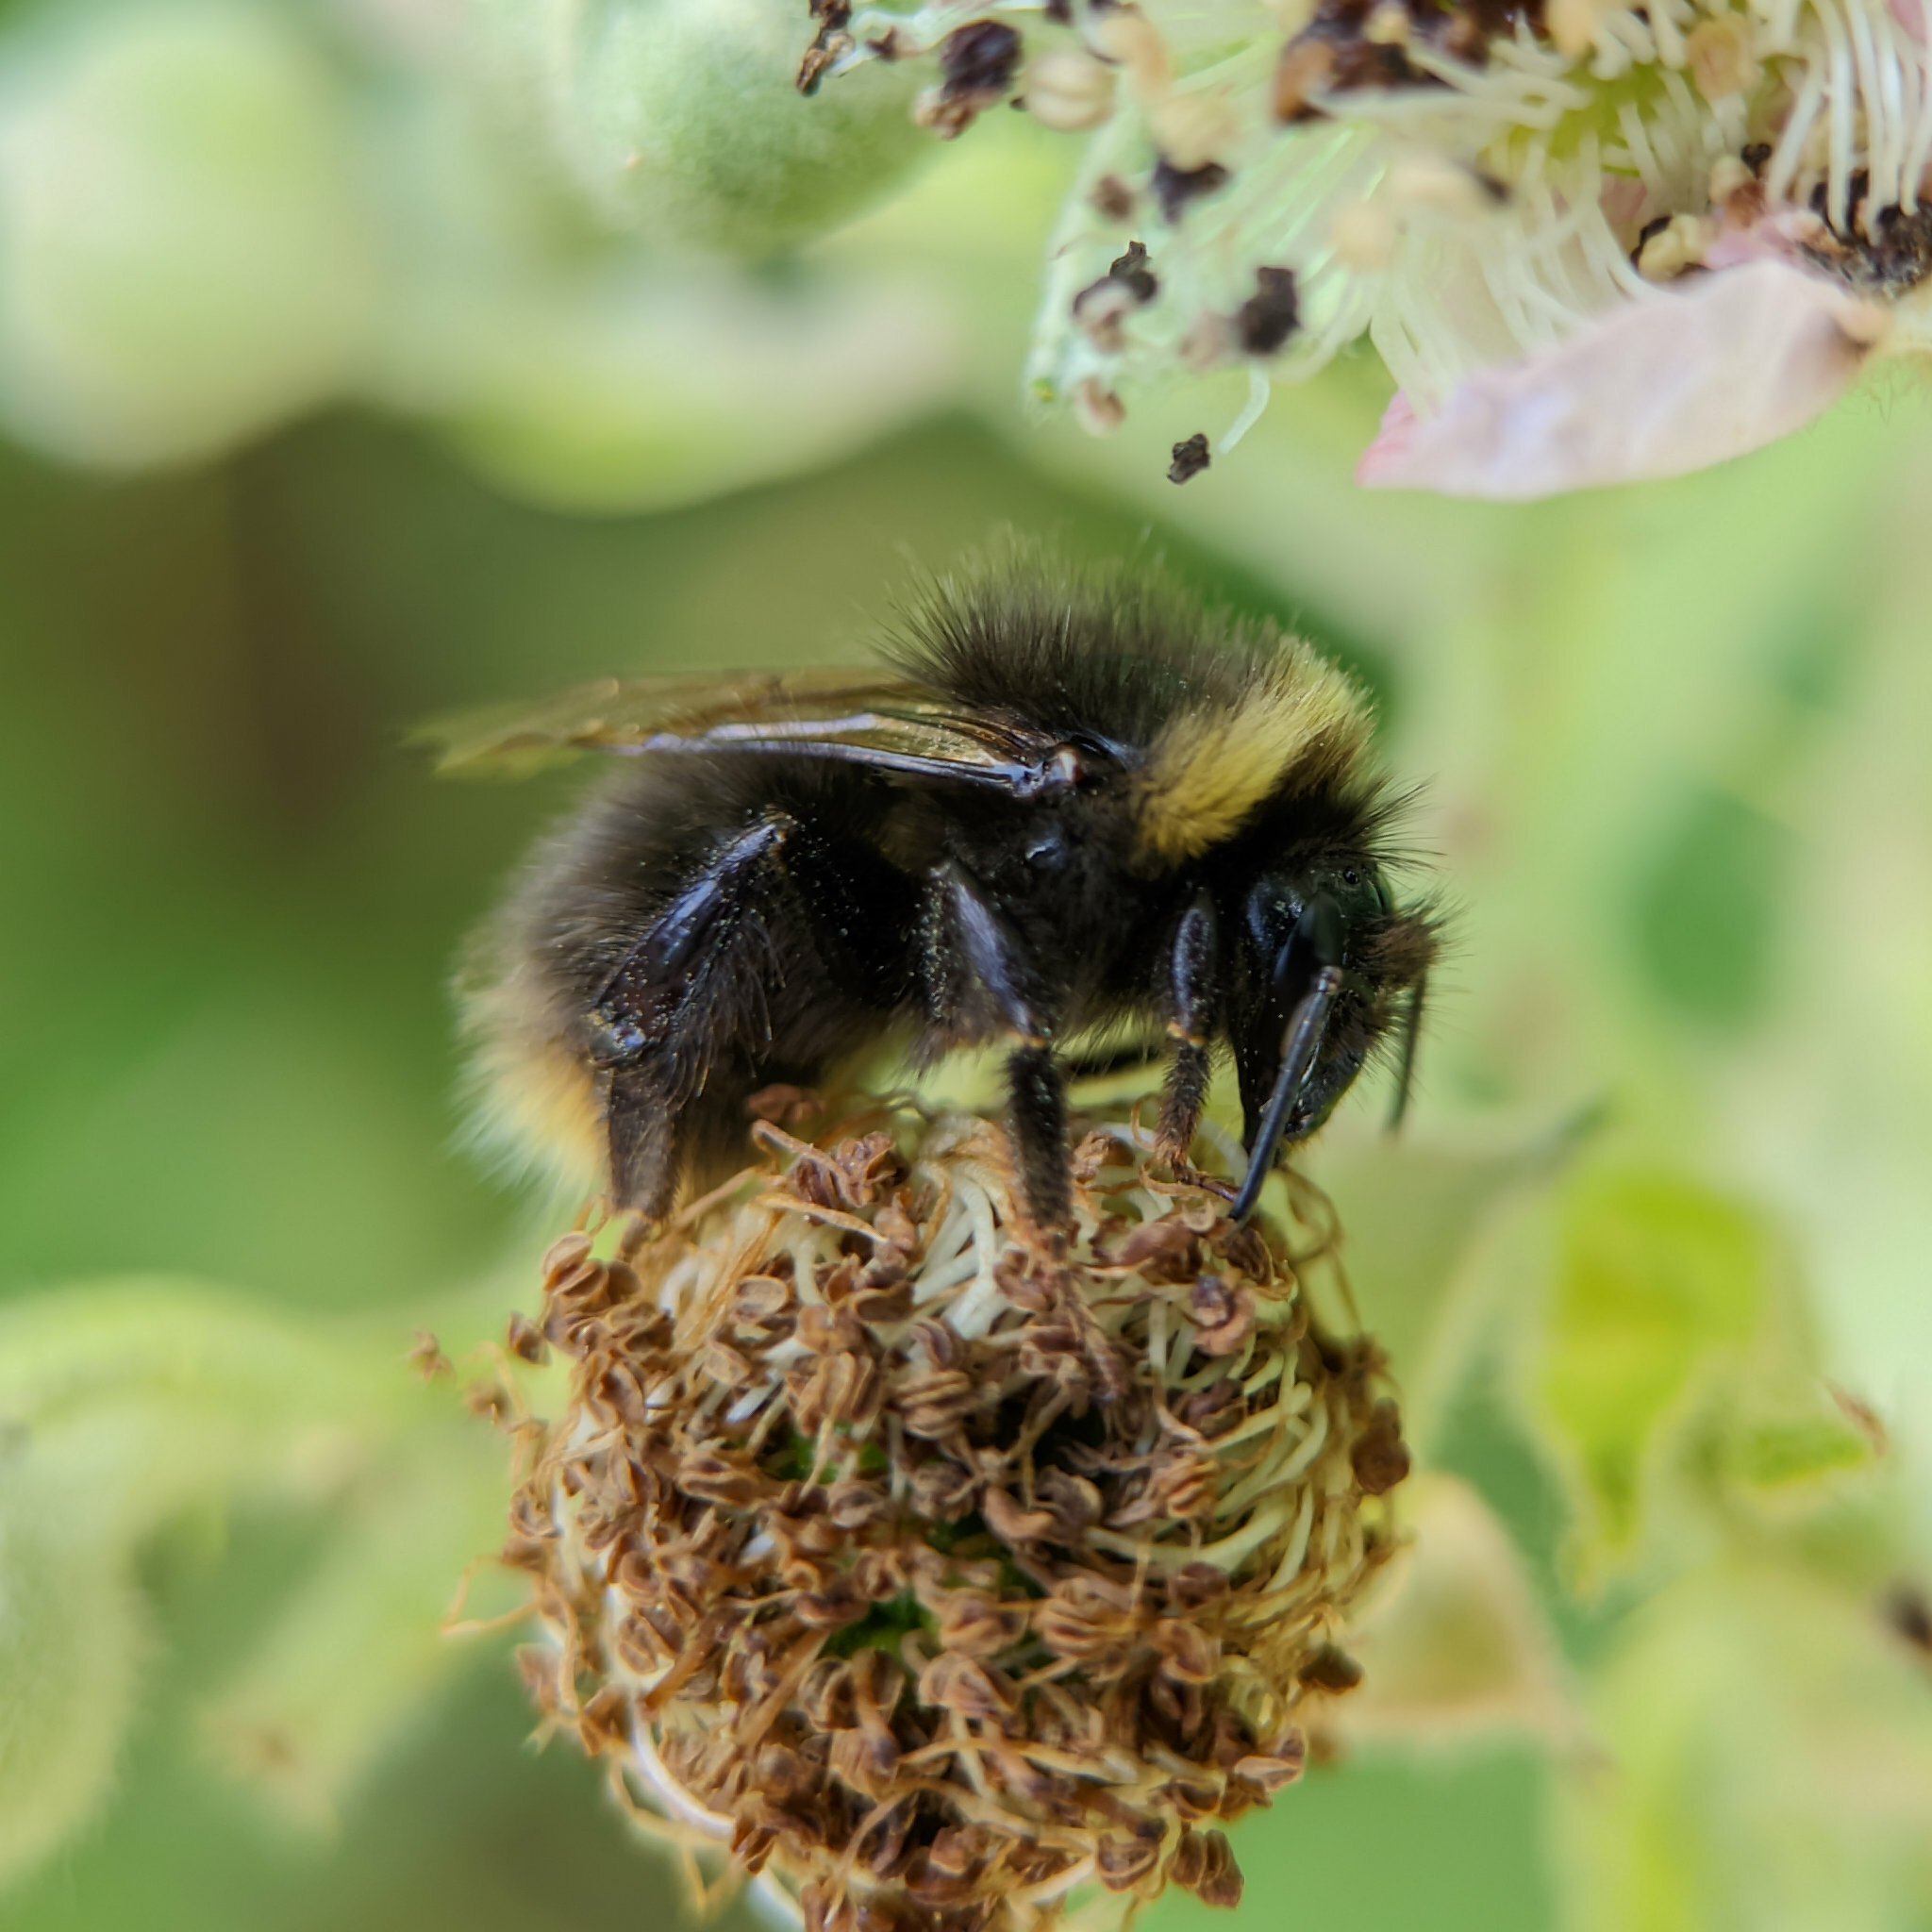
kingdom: Animalia
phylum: Arthropoda
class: Insecta
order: Hymenoptera
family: Apidae
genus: Bombus
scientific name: Bombus pratorum
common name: Early humble-bee
